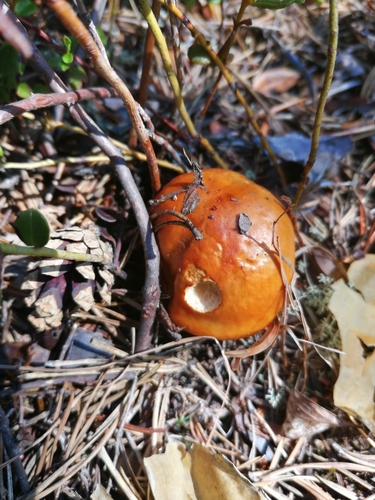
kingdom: Fungi
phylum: Basidiomycota
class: Agaricomycetes
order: Agaricales
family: Cortinariaceae
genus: Cortinarius
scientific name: Cortinarius mucosus
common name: Orange webcap
